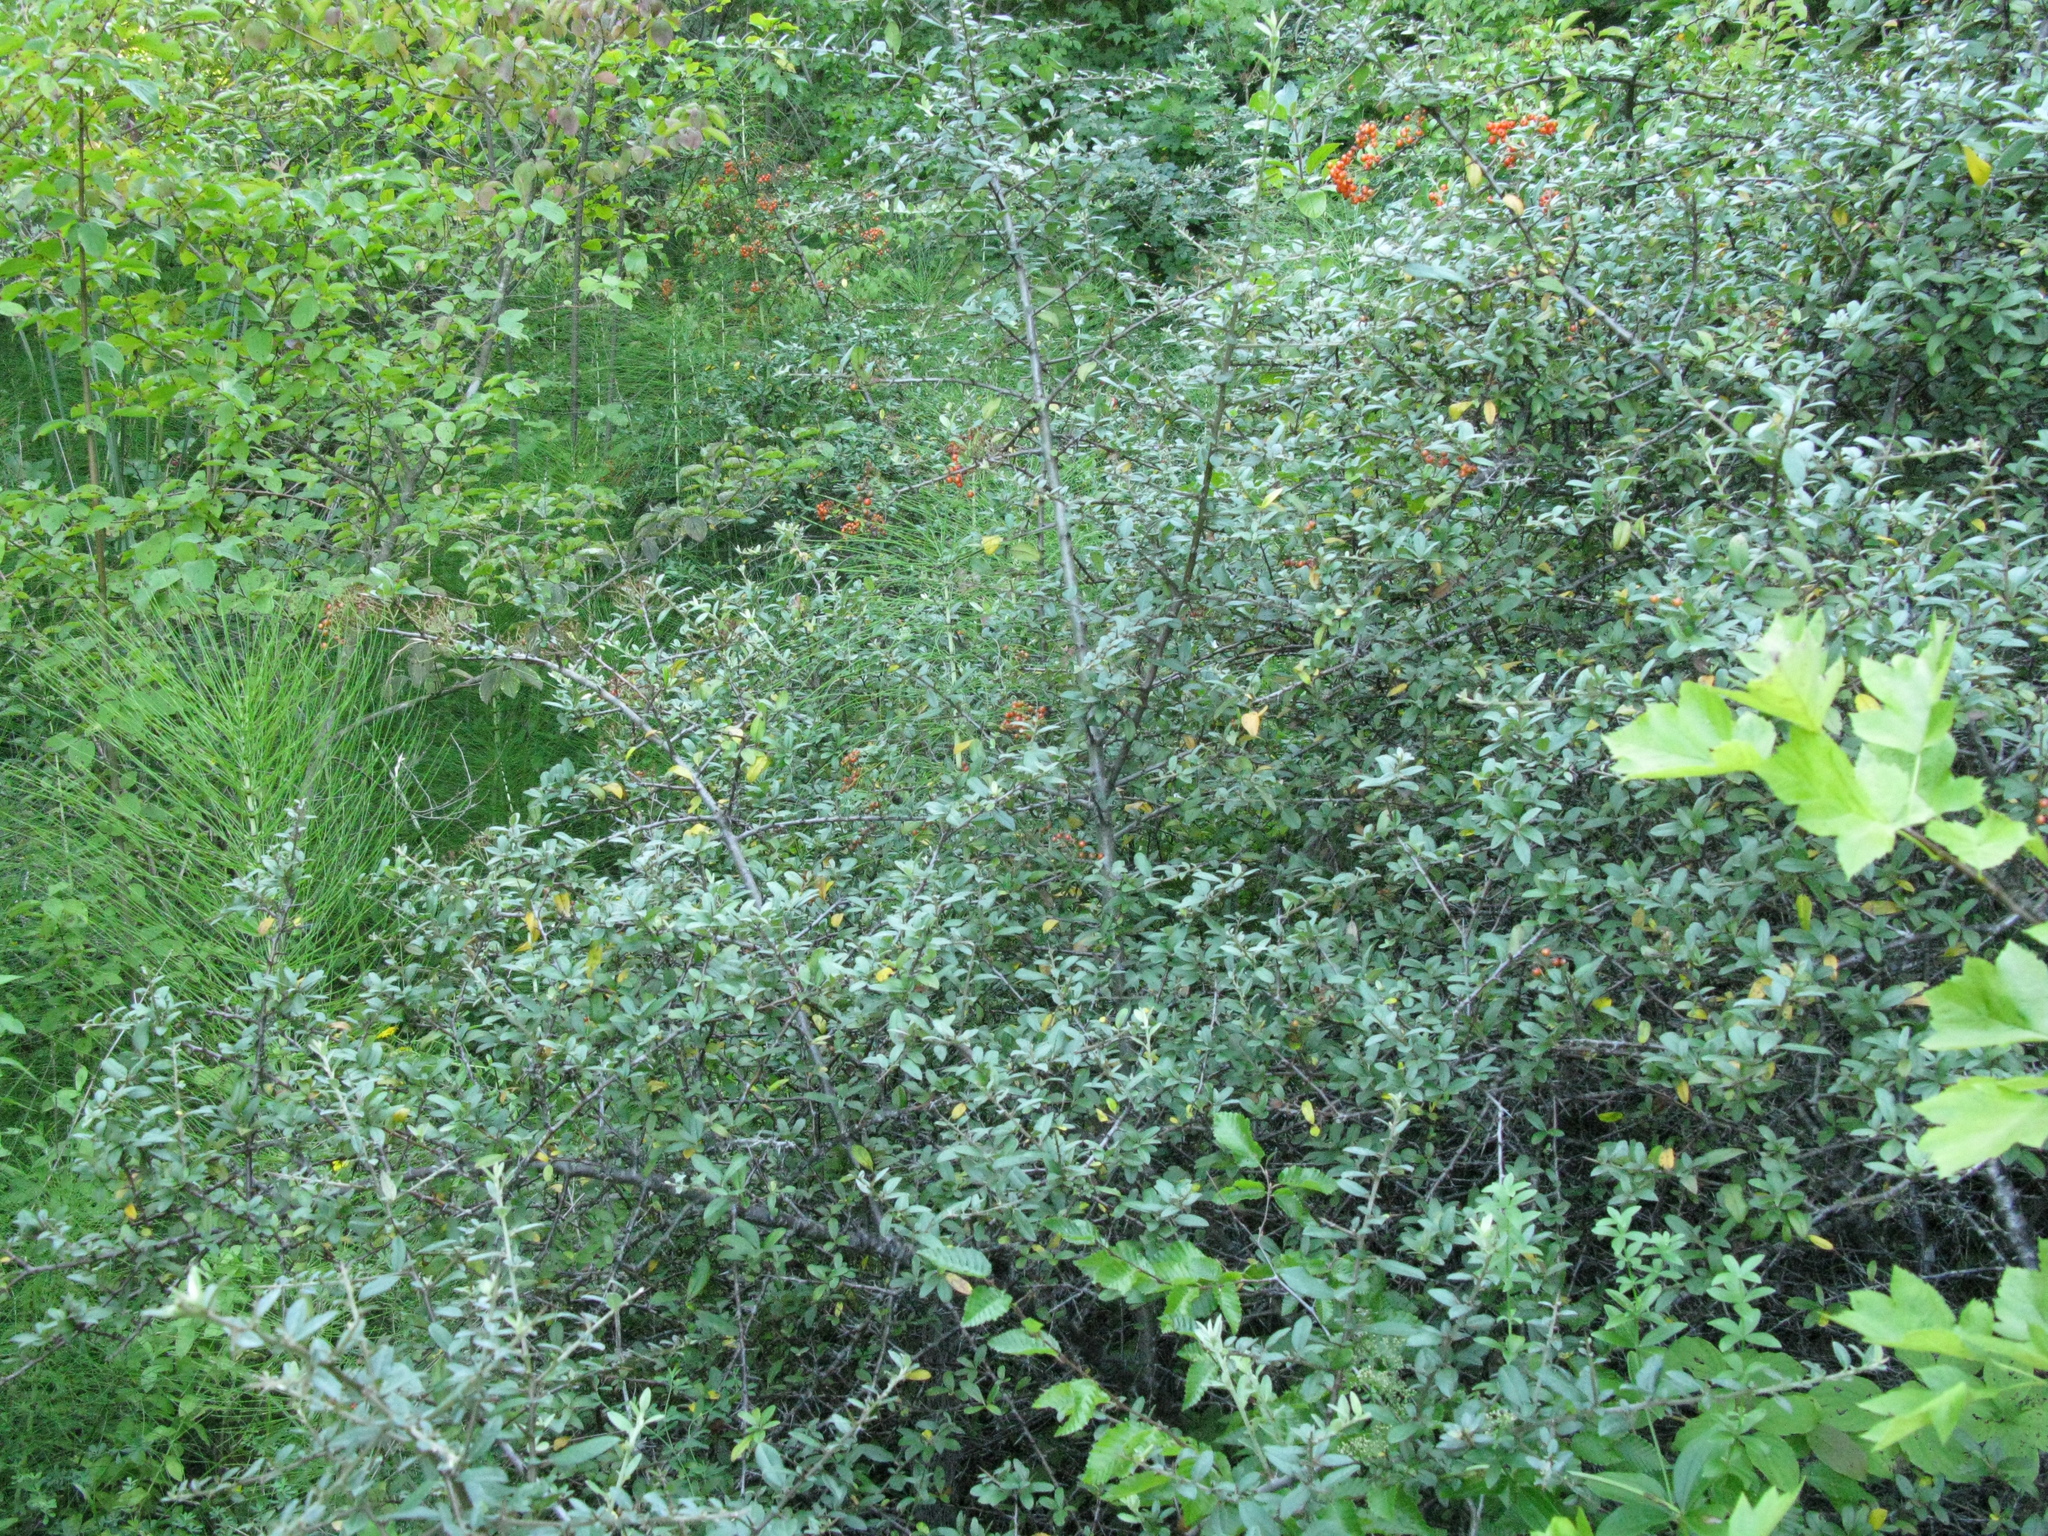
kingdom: Plantae
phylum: Tracheophyta
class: Magnoliopsida
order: Rosales
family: Rosaceae
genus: Pyracantha
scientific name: Pyracantha coccinea
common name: Firethorn
